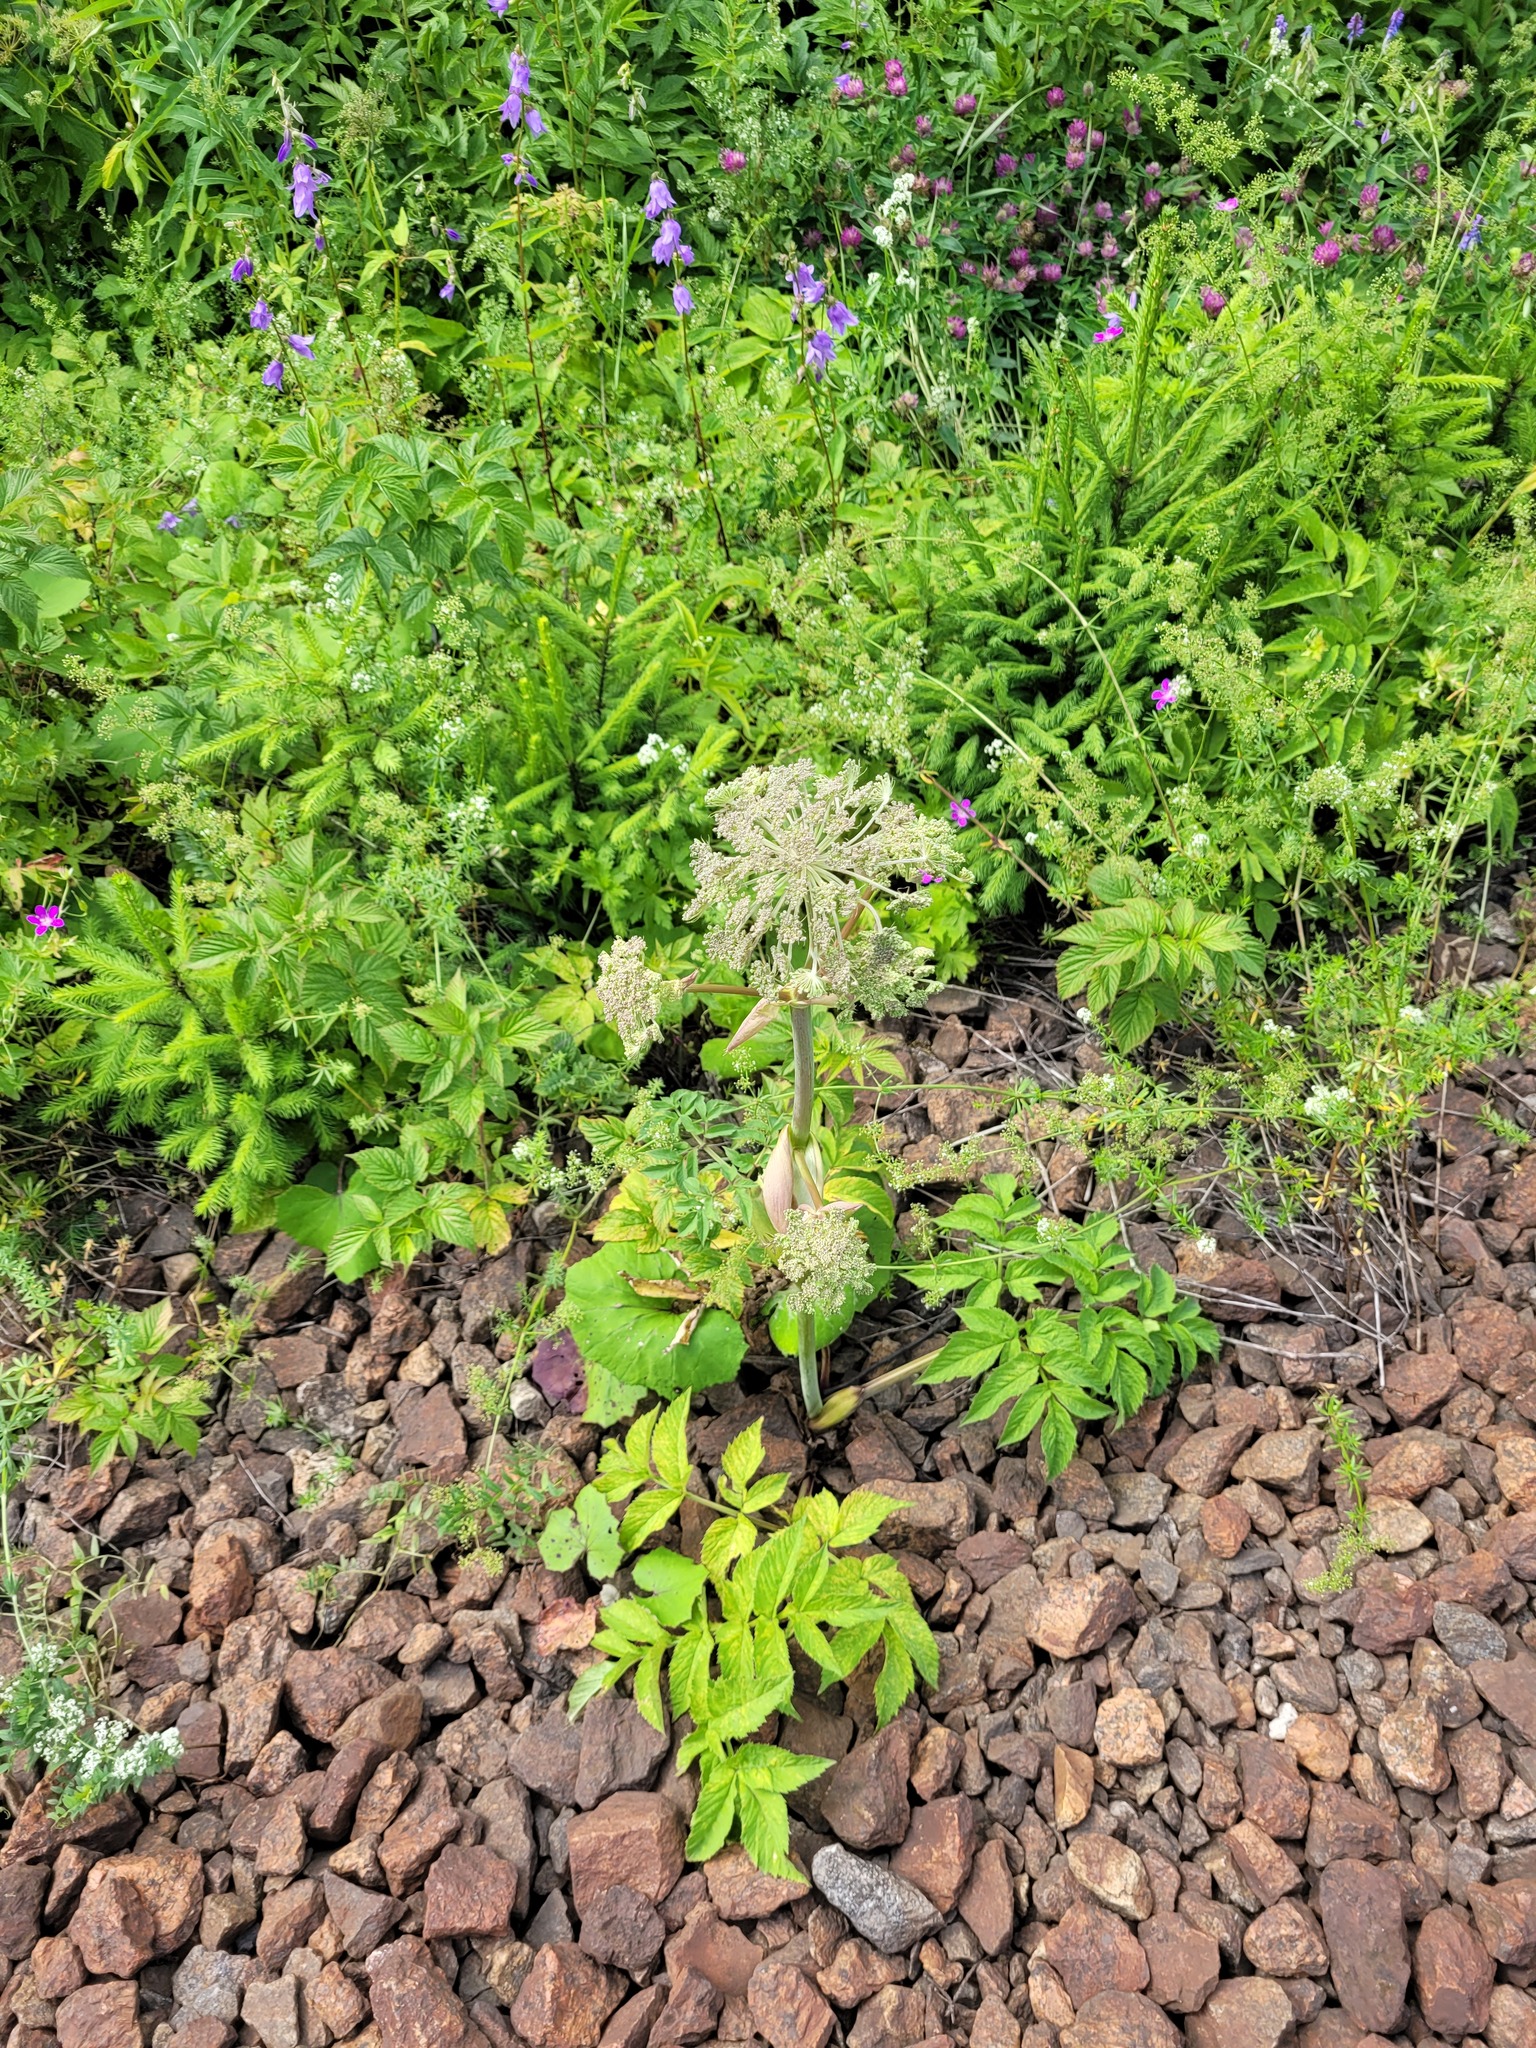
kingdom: Plantae
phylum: Tracheophyta
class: Magnoliopsida
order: Apiales
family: Apiaceae
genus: Angelica
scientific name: Angelica sylvestris
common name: Wild angelica
